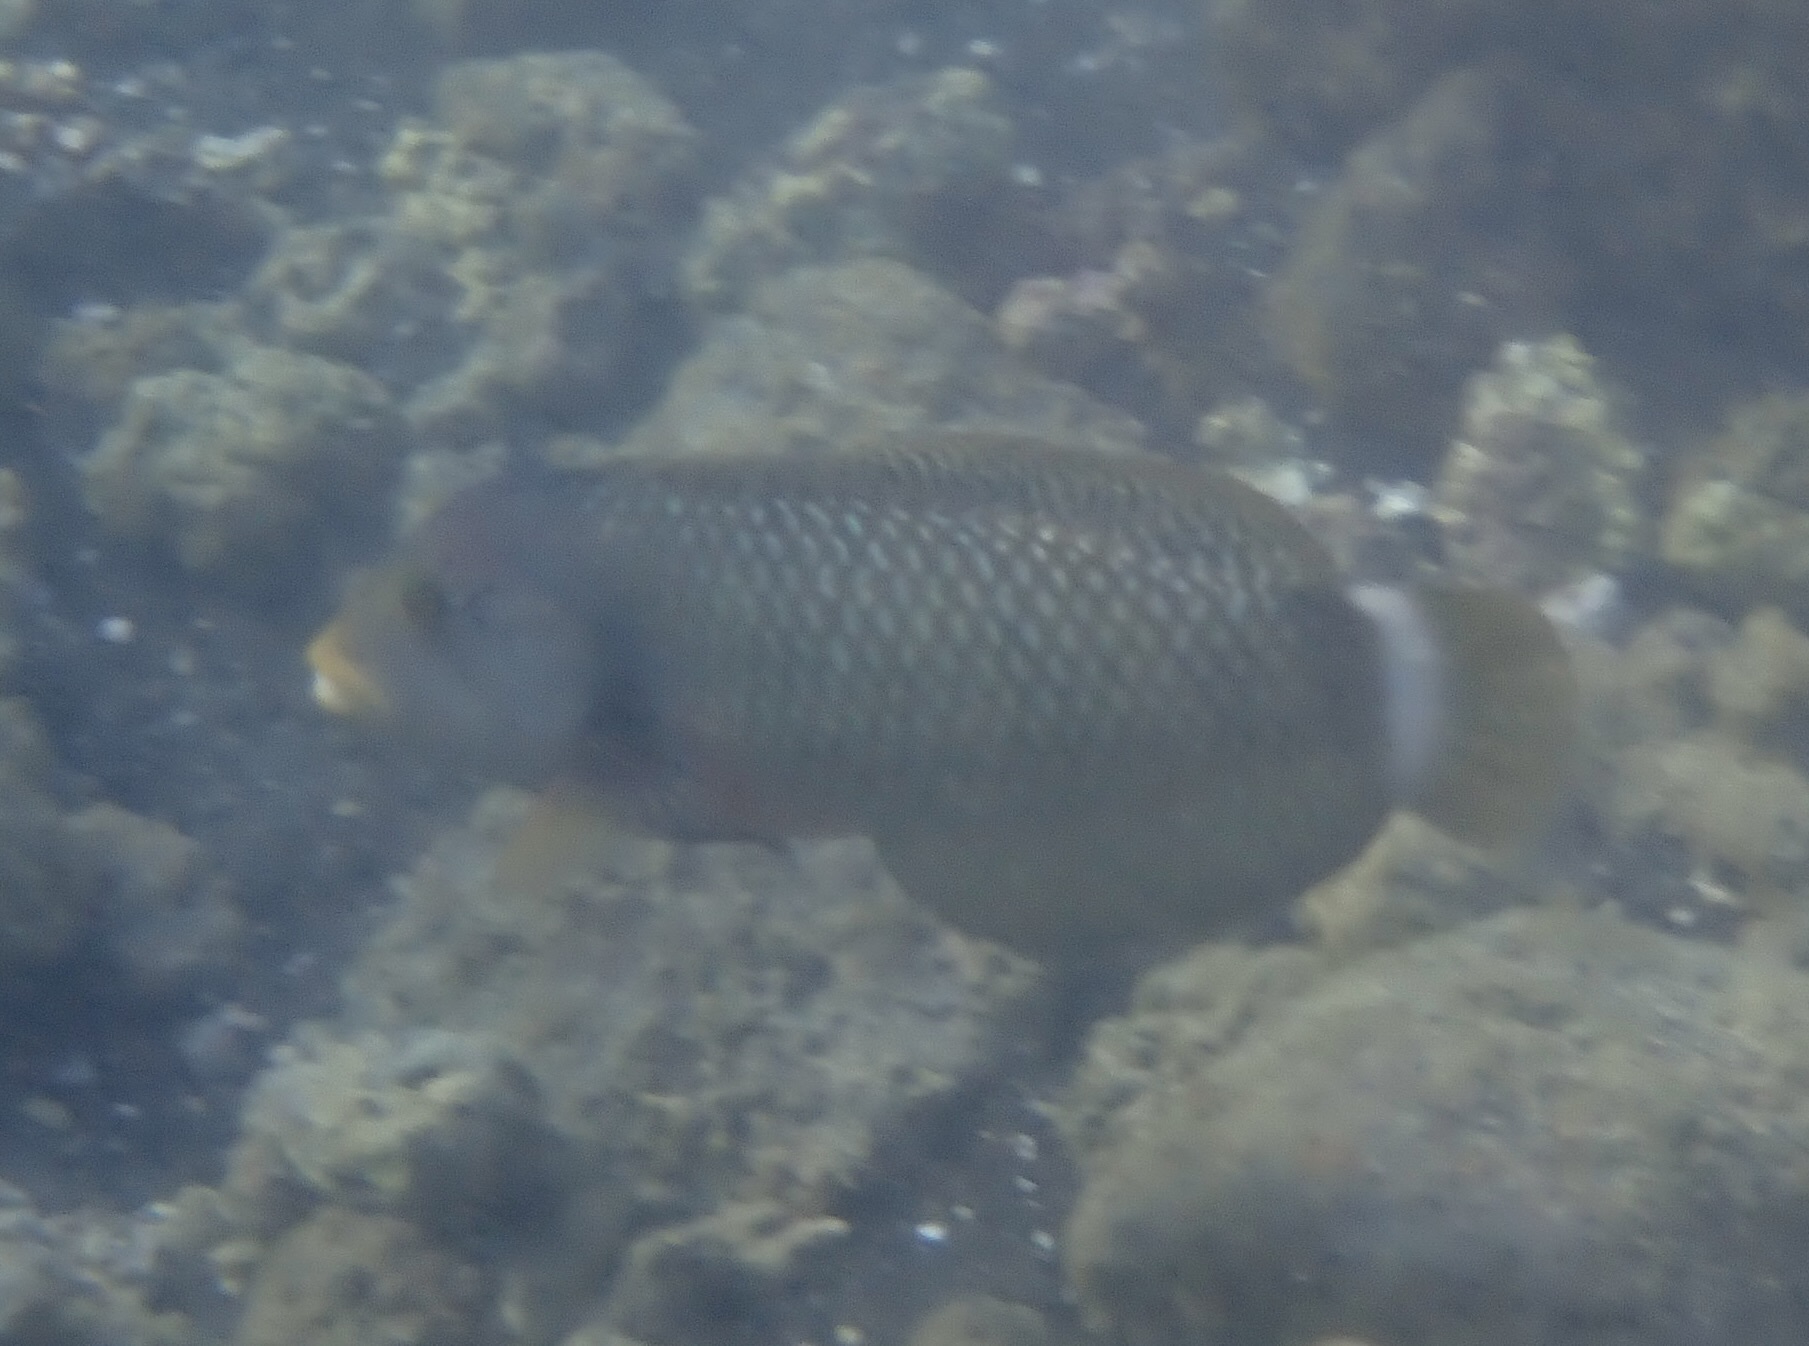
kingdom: Animalia
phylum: Chordata
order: Perciformes
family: Labridae
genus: Novaculichthys
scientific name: Novaculichthys taeniourus
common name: Rockmover wrasse
